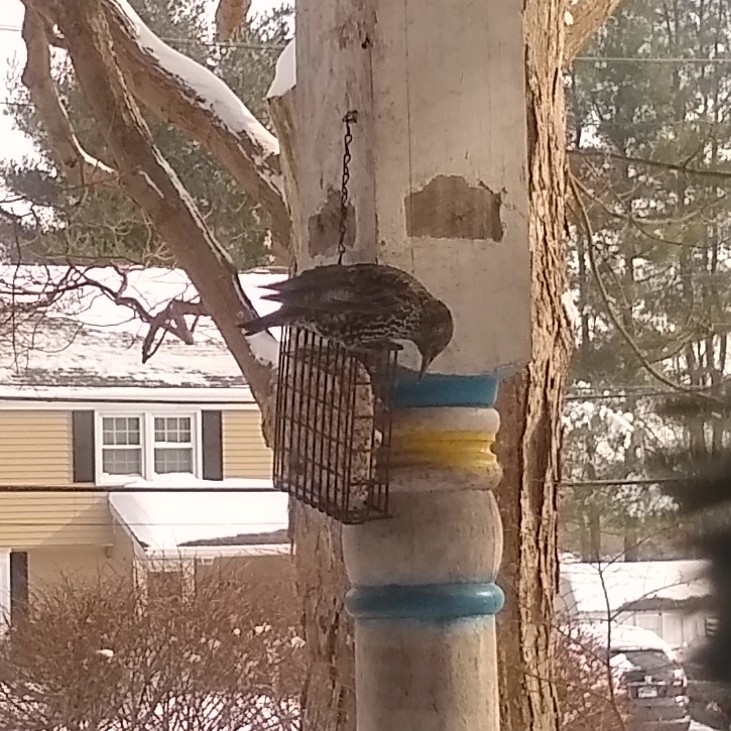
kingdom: Animalia
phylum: Chordata
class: Aves
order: Passeriformes
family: Sturnidae
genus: Sturnus
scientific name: Sturnus vulgaris
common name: Common starling
